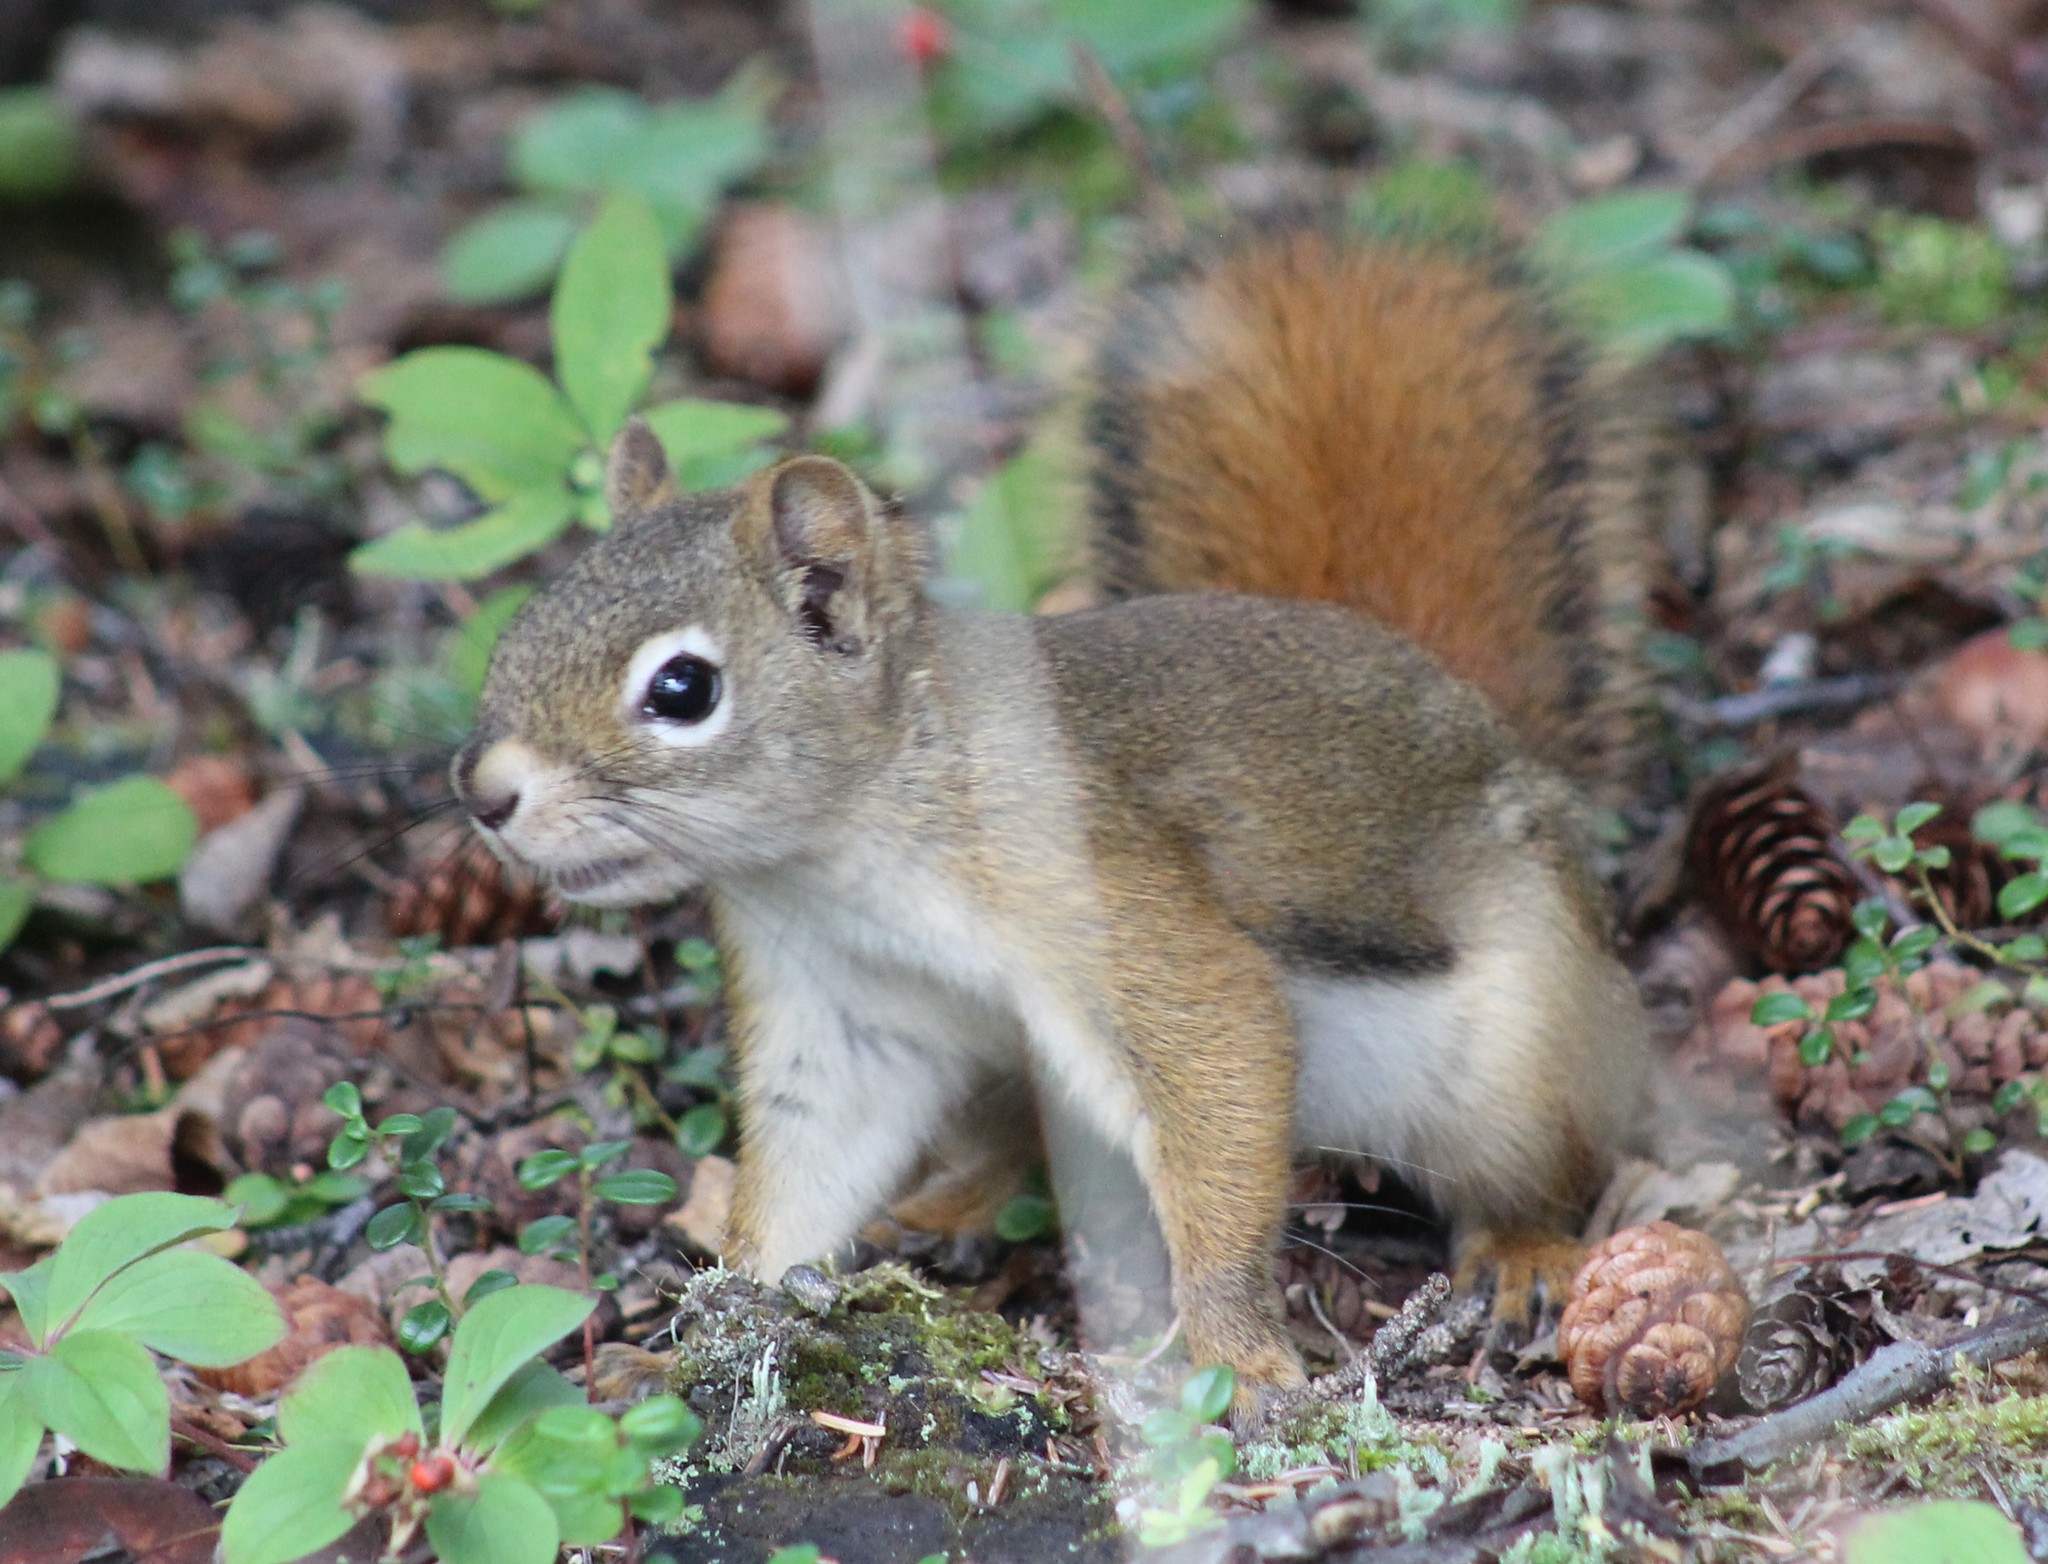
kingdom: Animalia
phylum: Chordata
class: Mammalia
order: Rodentia
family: Sciuridae
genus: Tamiasciurus
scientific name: Tamiasciurus hudsonicus
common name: Red squirrel
